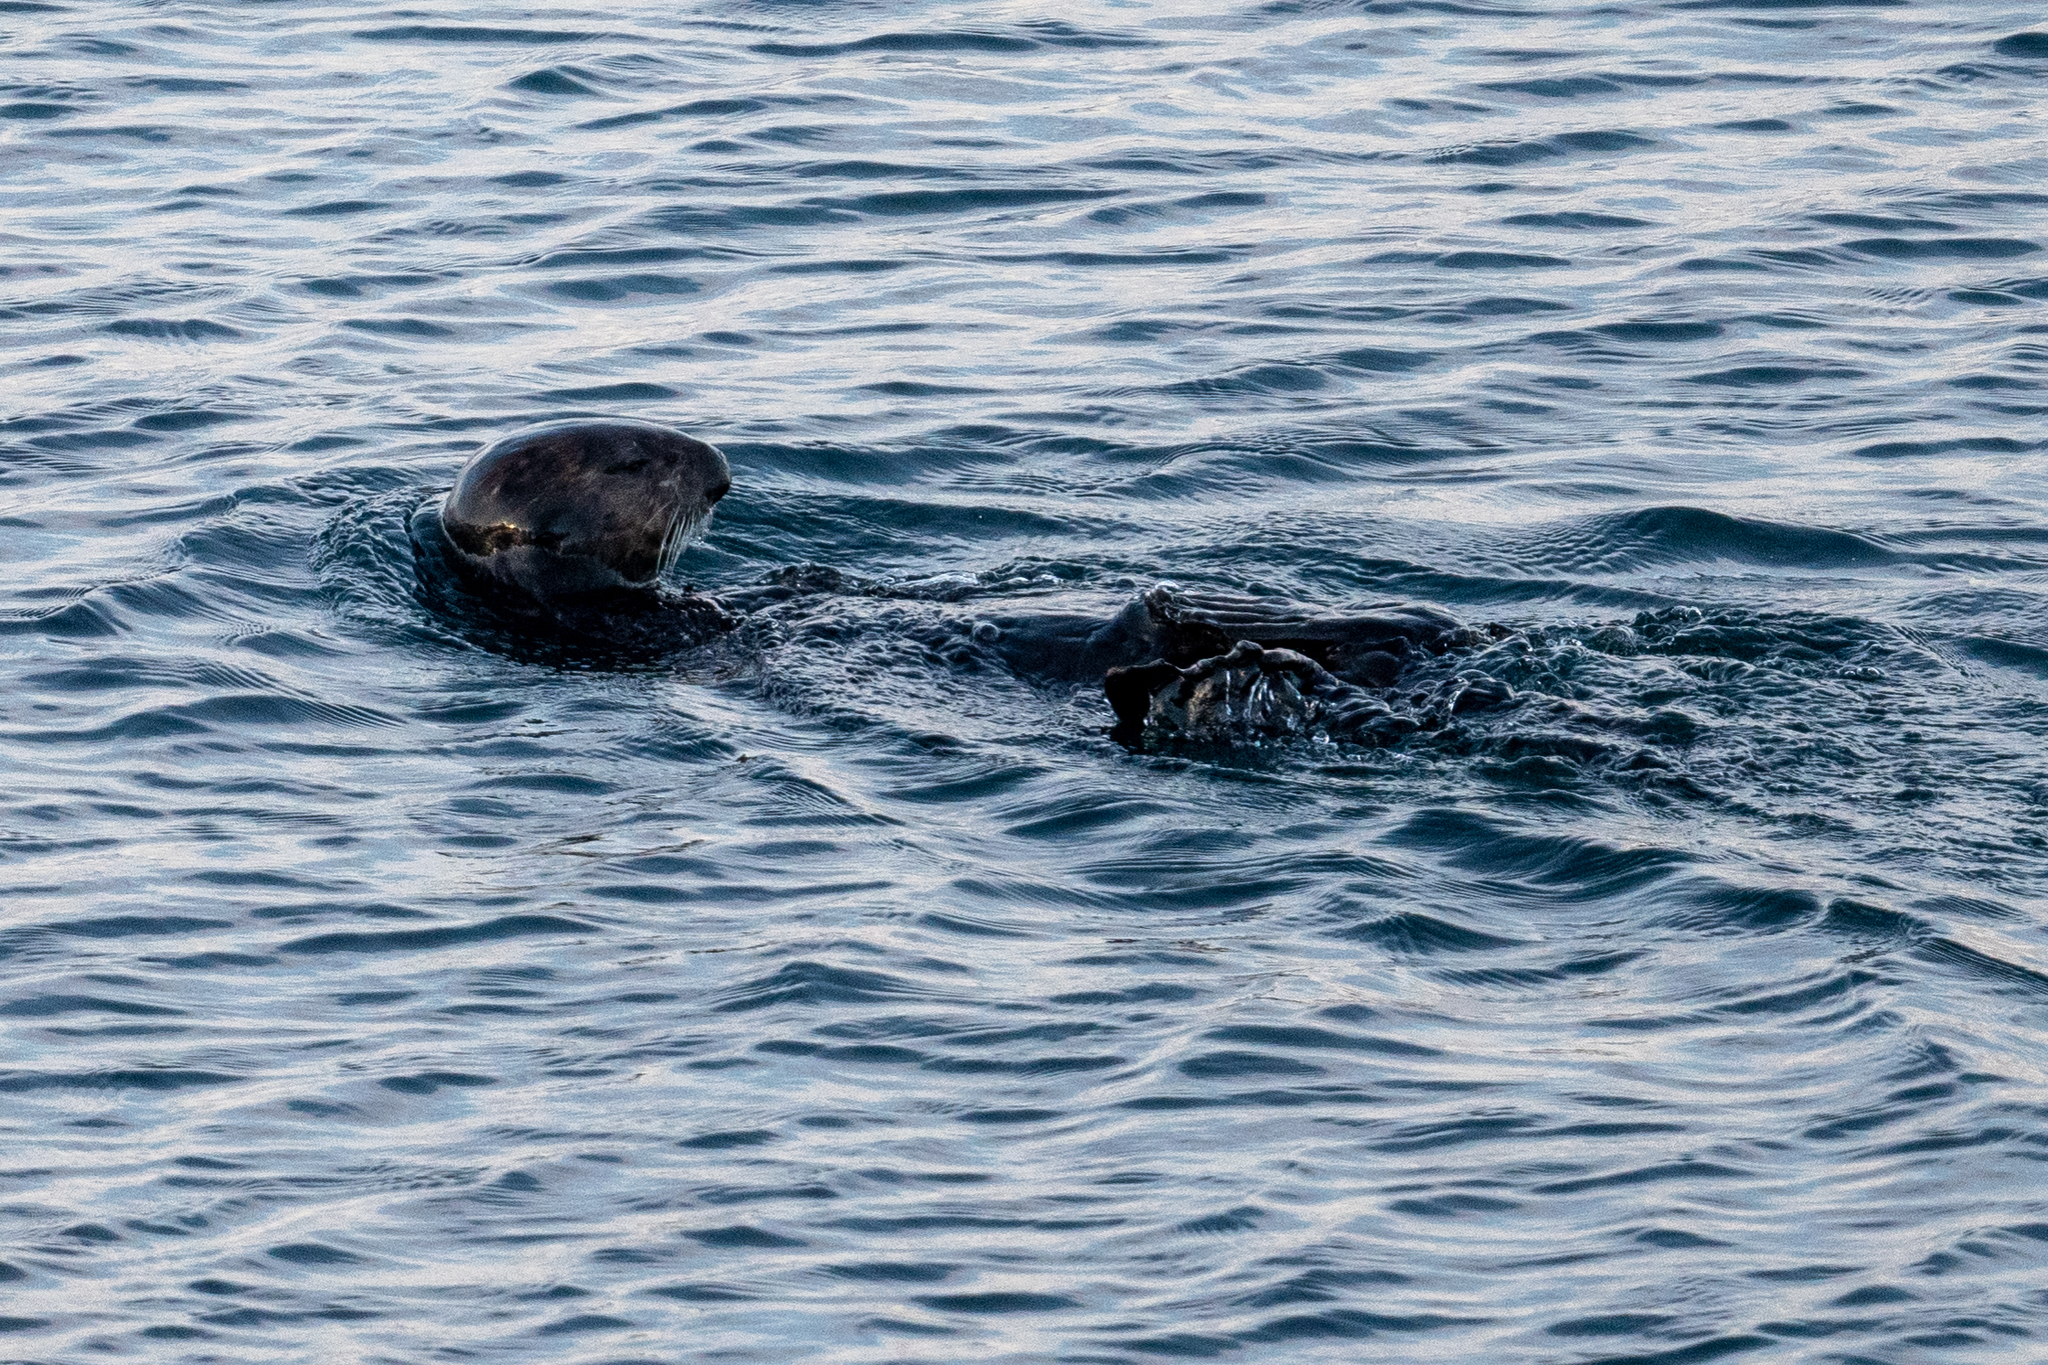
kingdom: Animalia
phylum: Chordata
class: Mammalia
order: Carnivora
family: Mustelidae
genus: Enhydra
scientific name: Enhydra lutris
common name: Sea otter
